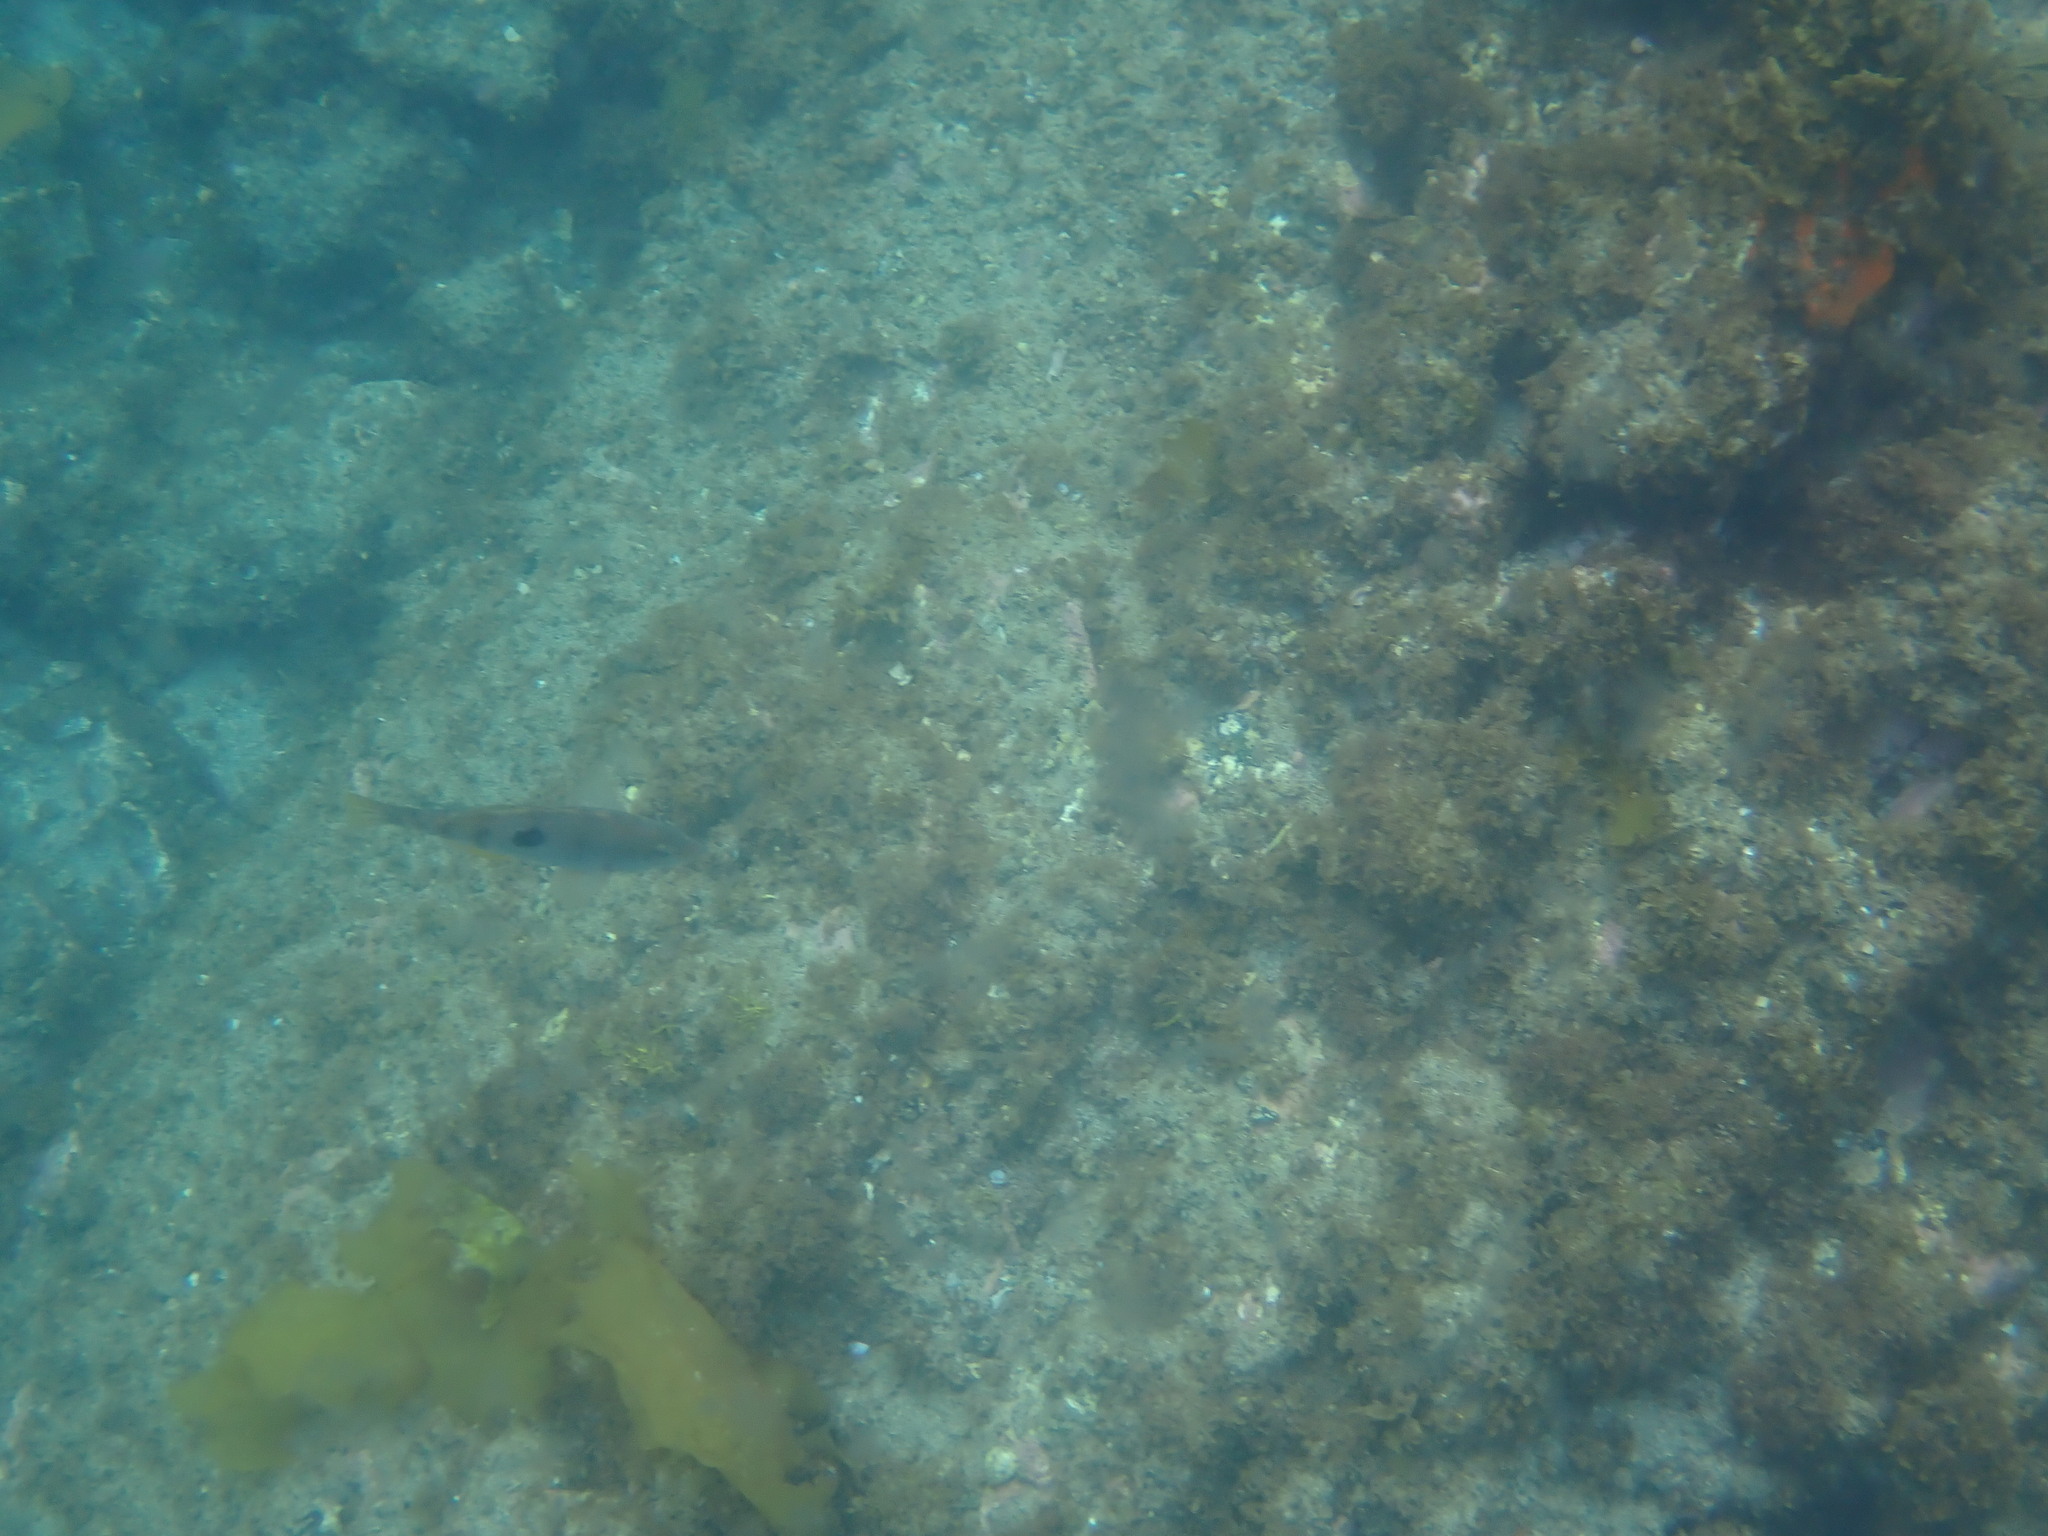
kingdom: Animalia
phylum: Chordata
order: Perciformes
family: Labridae
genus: Notolabrus
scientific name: Notolabrus celidotus
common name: Spotty
